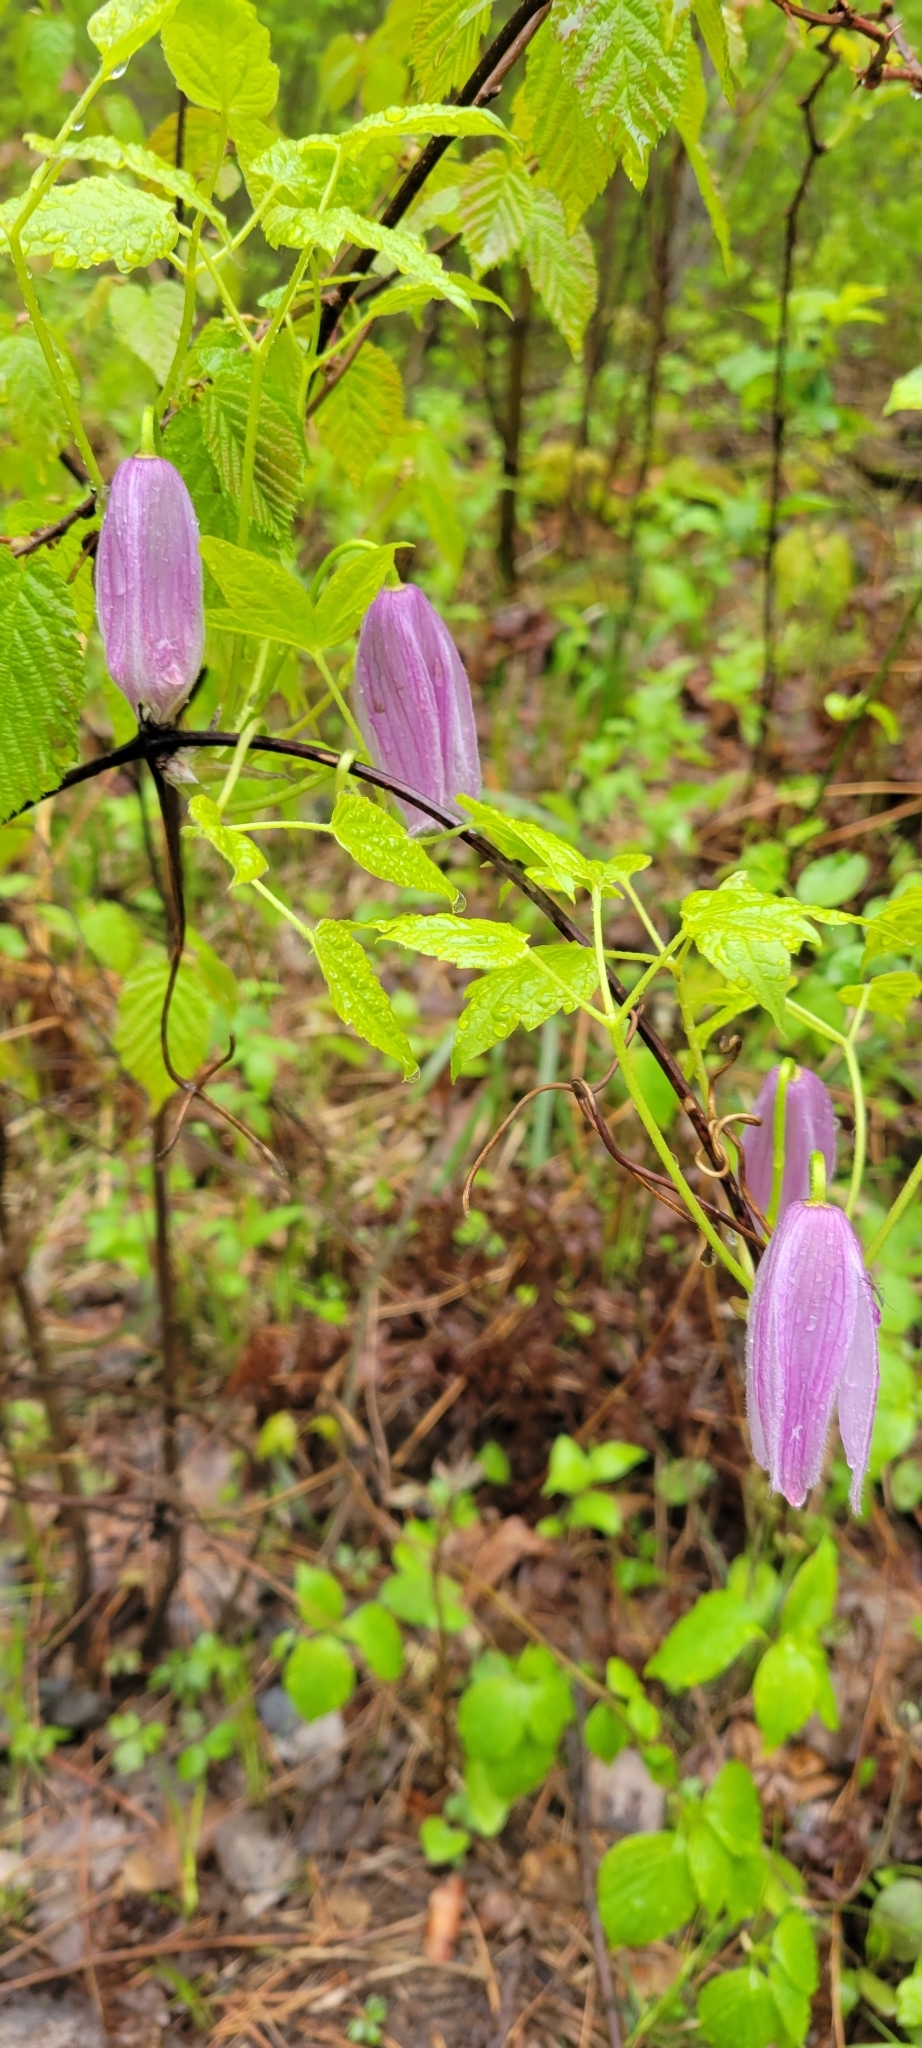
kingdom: Plantae
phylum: Tracheophyta
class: Magnoliopsida
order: Ranunculales
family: Ranunculaceae
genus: Clematis
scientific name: Clematis occidentalis
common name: Purple clematis
